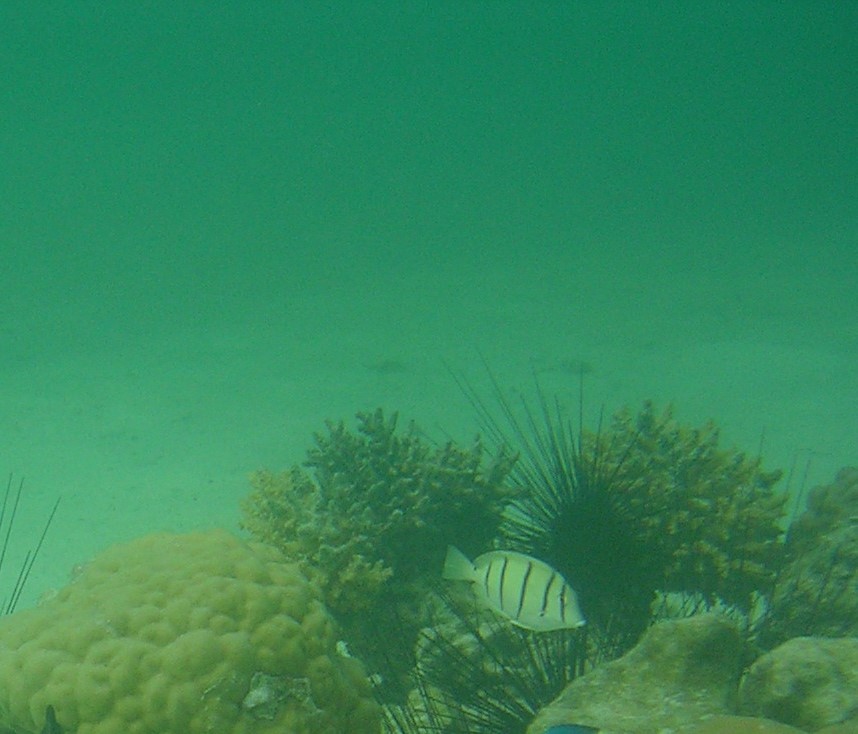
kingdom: Animalia
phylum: Chordata
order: Perciformes
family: Acanthuridae
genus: Acanthurus
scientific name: Acanthurus triostegus
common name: Convict surgeonfish
